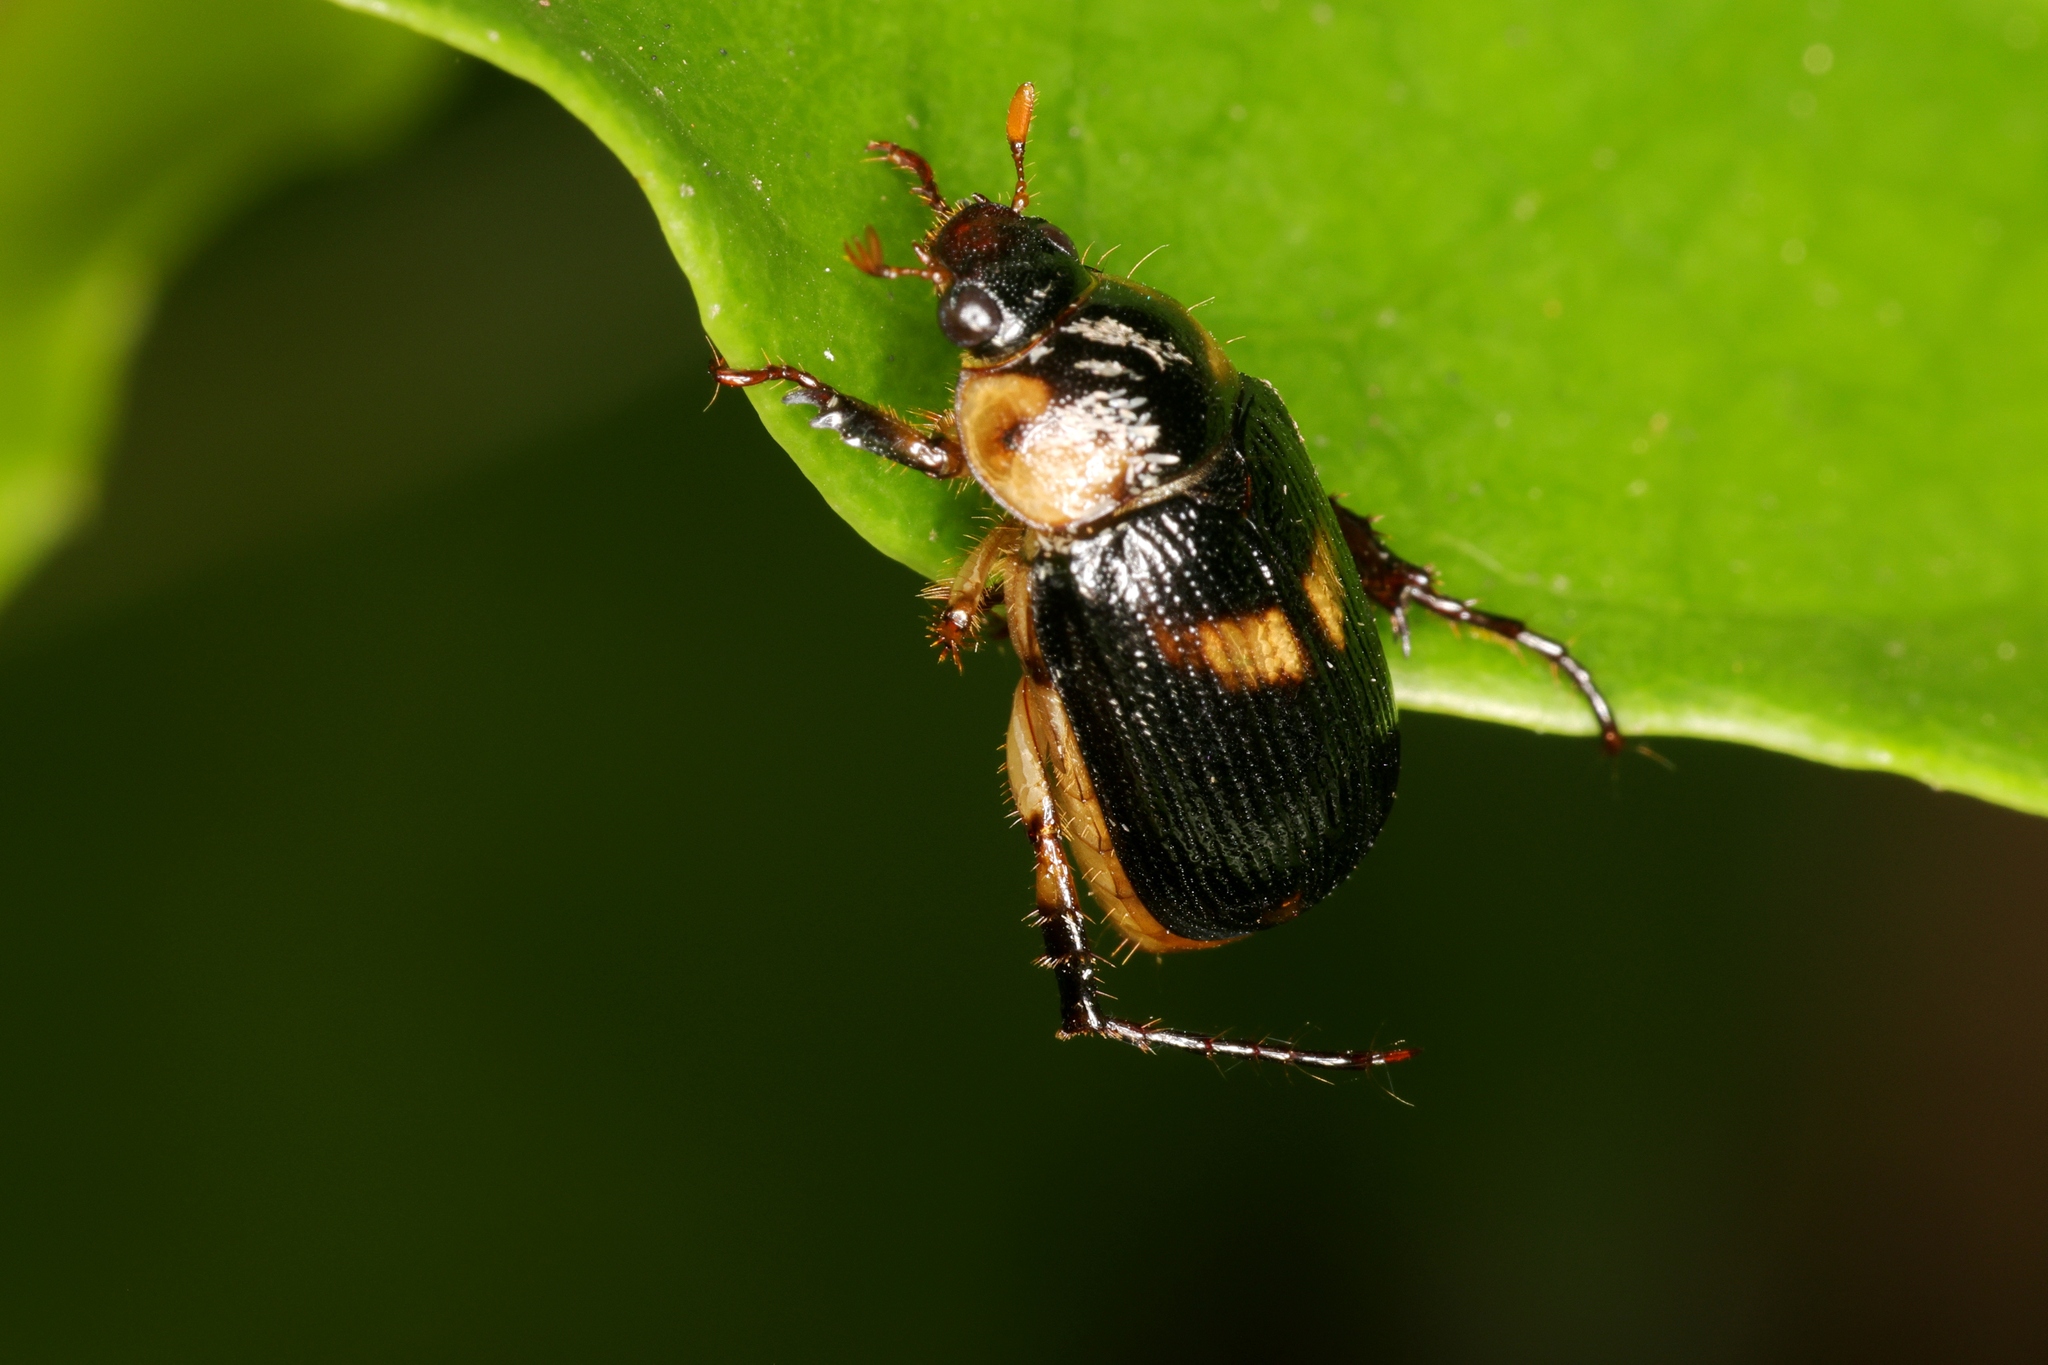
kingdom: Animalia
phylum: Arthropoda
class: Insecta
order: Coleoptera
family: Scarabaeidae
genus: Anomala
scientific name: Anomala bilunata
